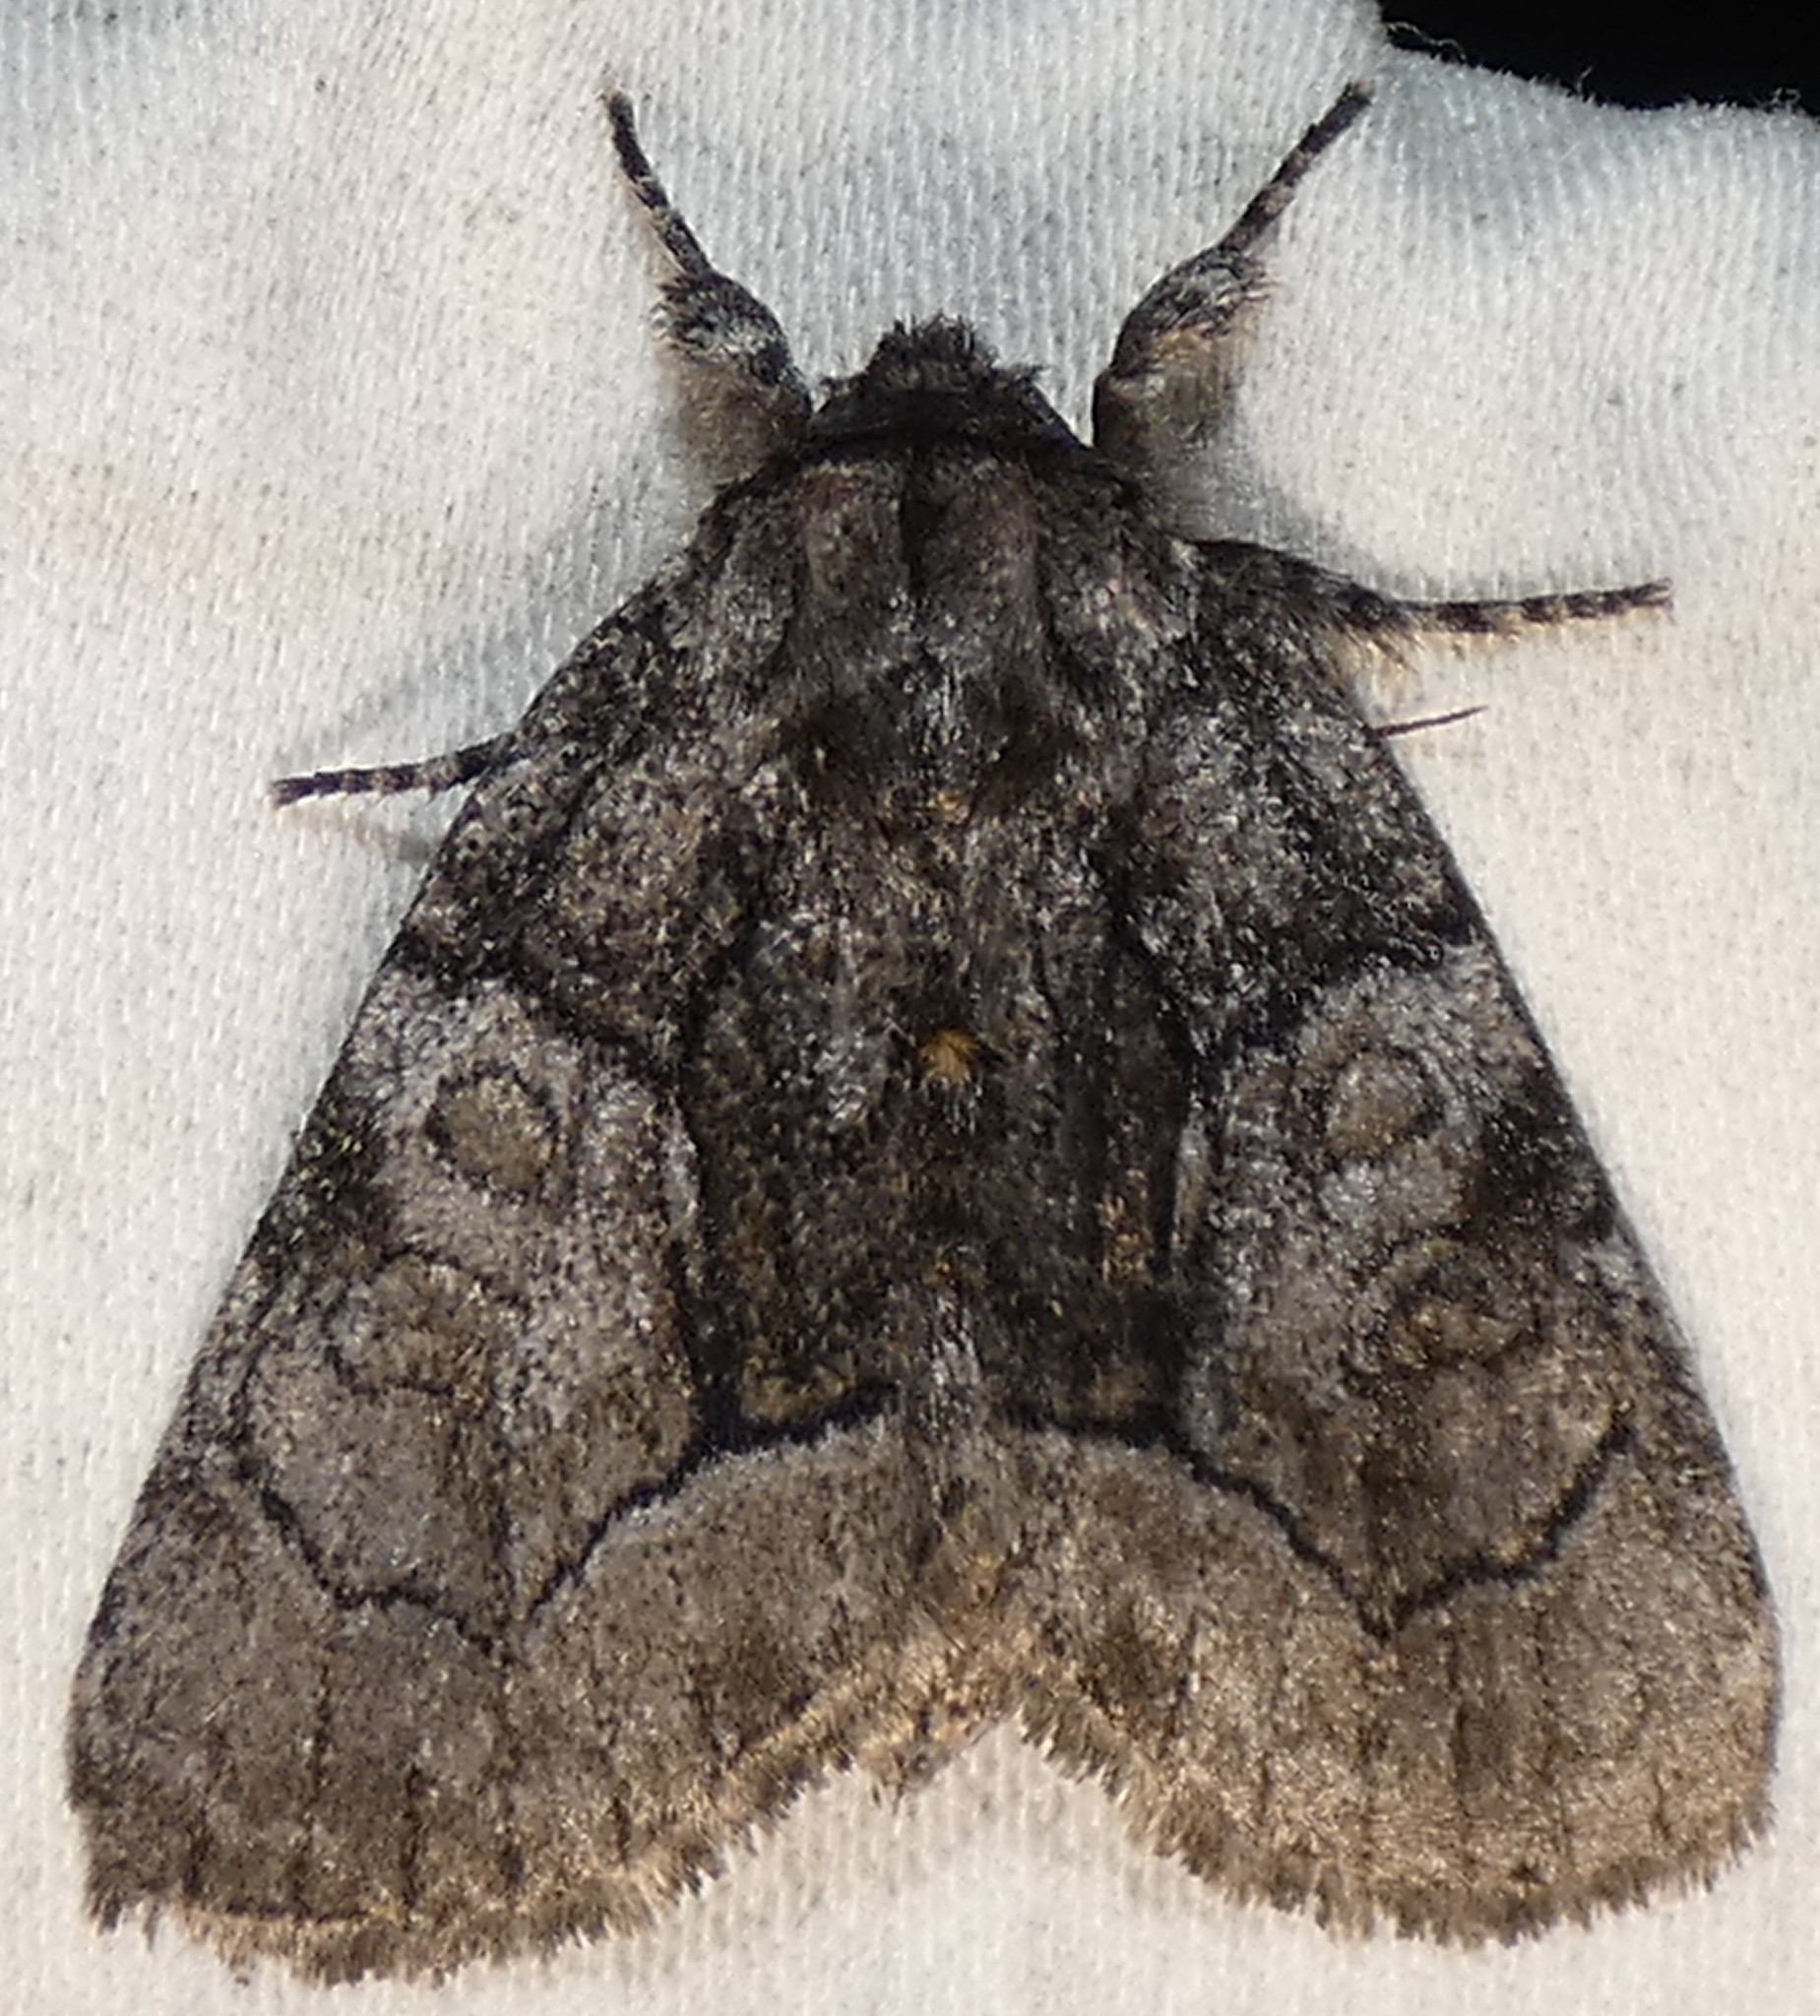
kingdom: Animalia
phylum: Arthropoda
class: Insecta
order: Lepidoptera
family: Noctuidae
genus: Raphia
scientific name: Raphia frater
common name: Brother
